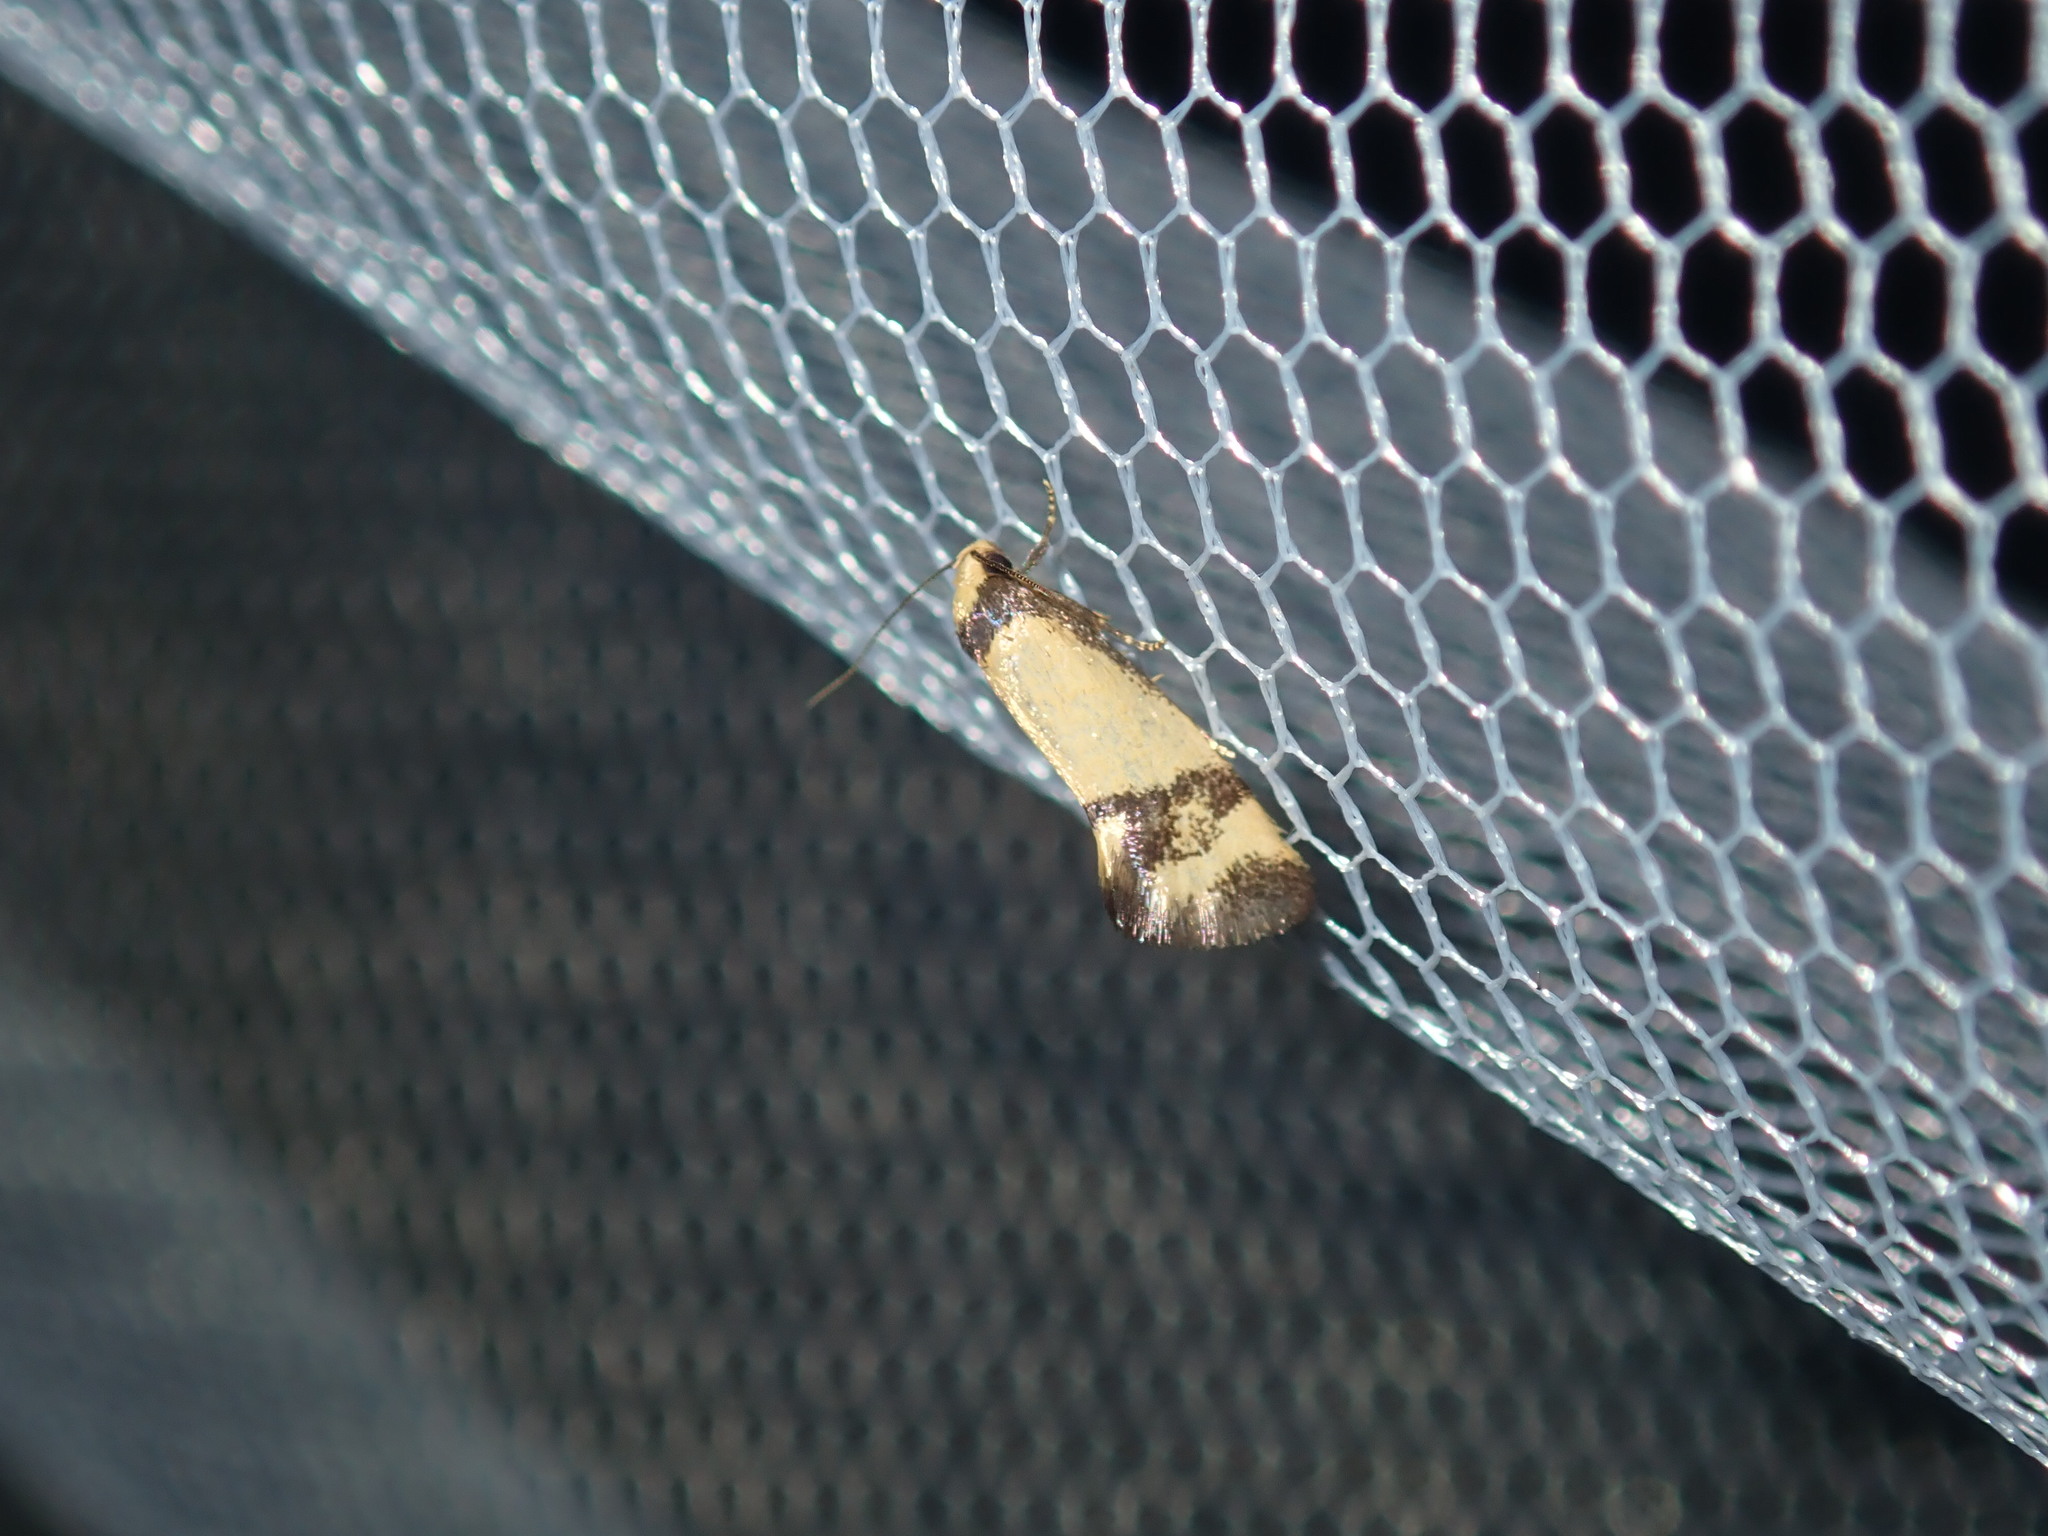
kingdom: Animalia
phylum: Arthropoda
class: Insecta
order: Lepidoptera
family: Oecophoridae
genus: Olbonoma
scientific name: Olbonoma triptycha
